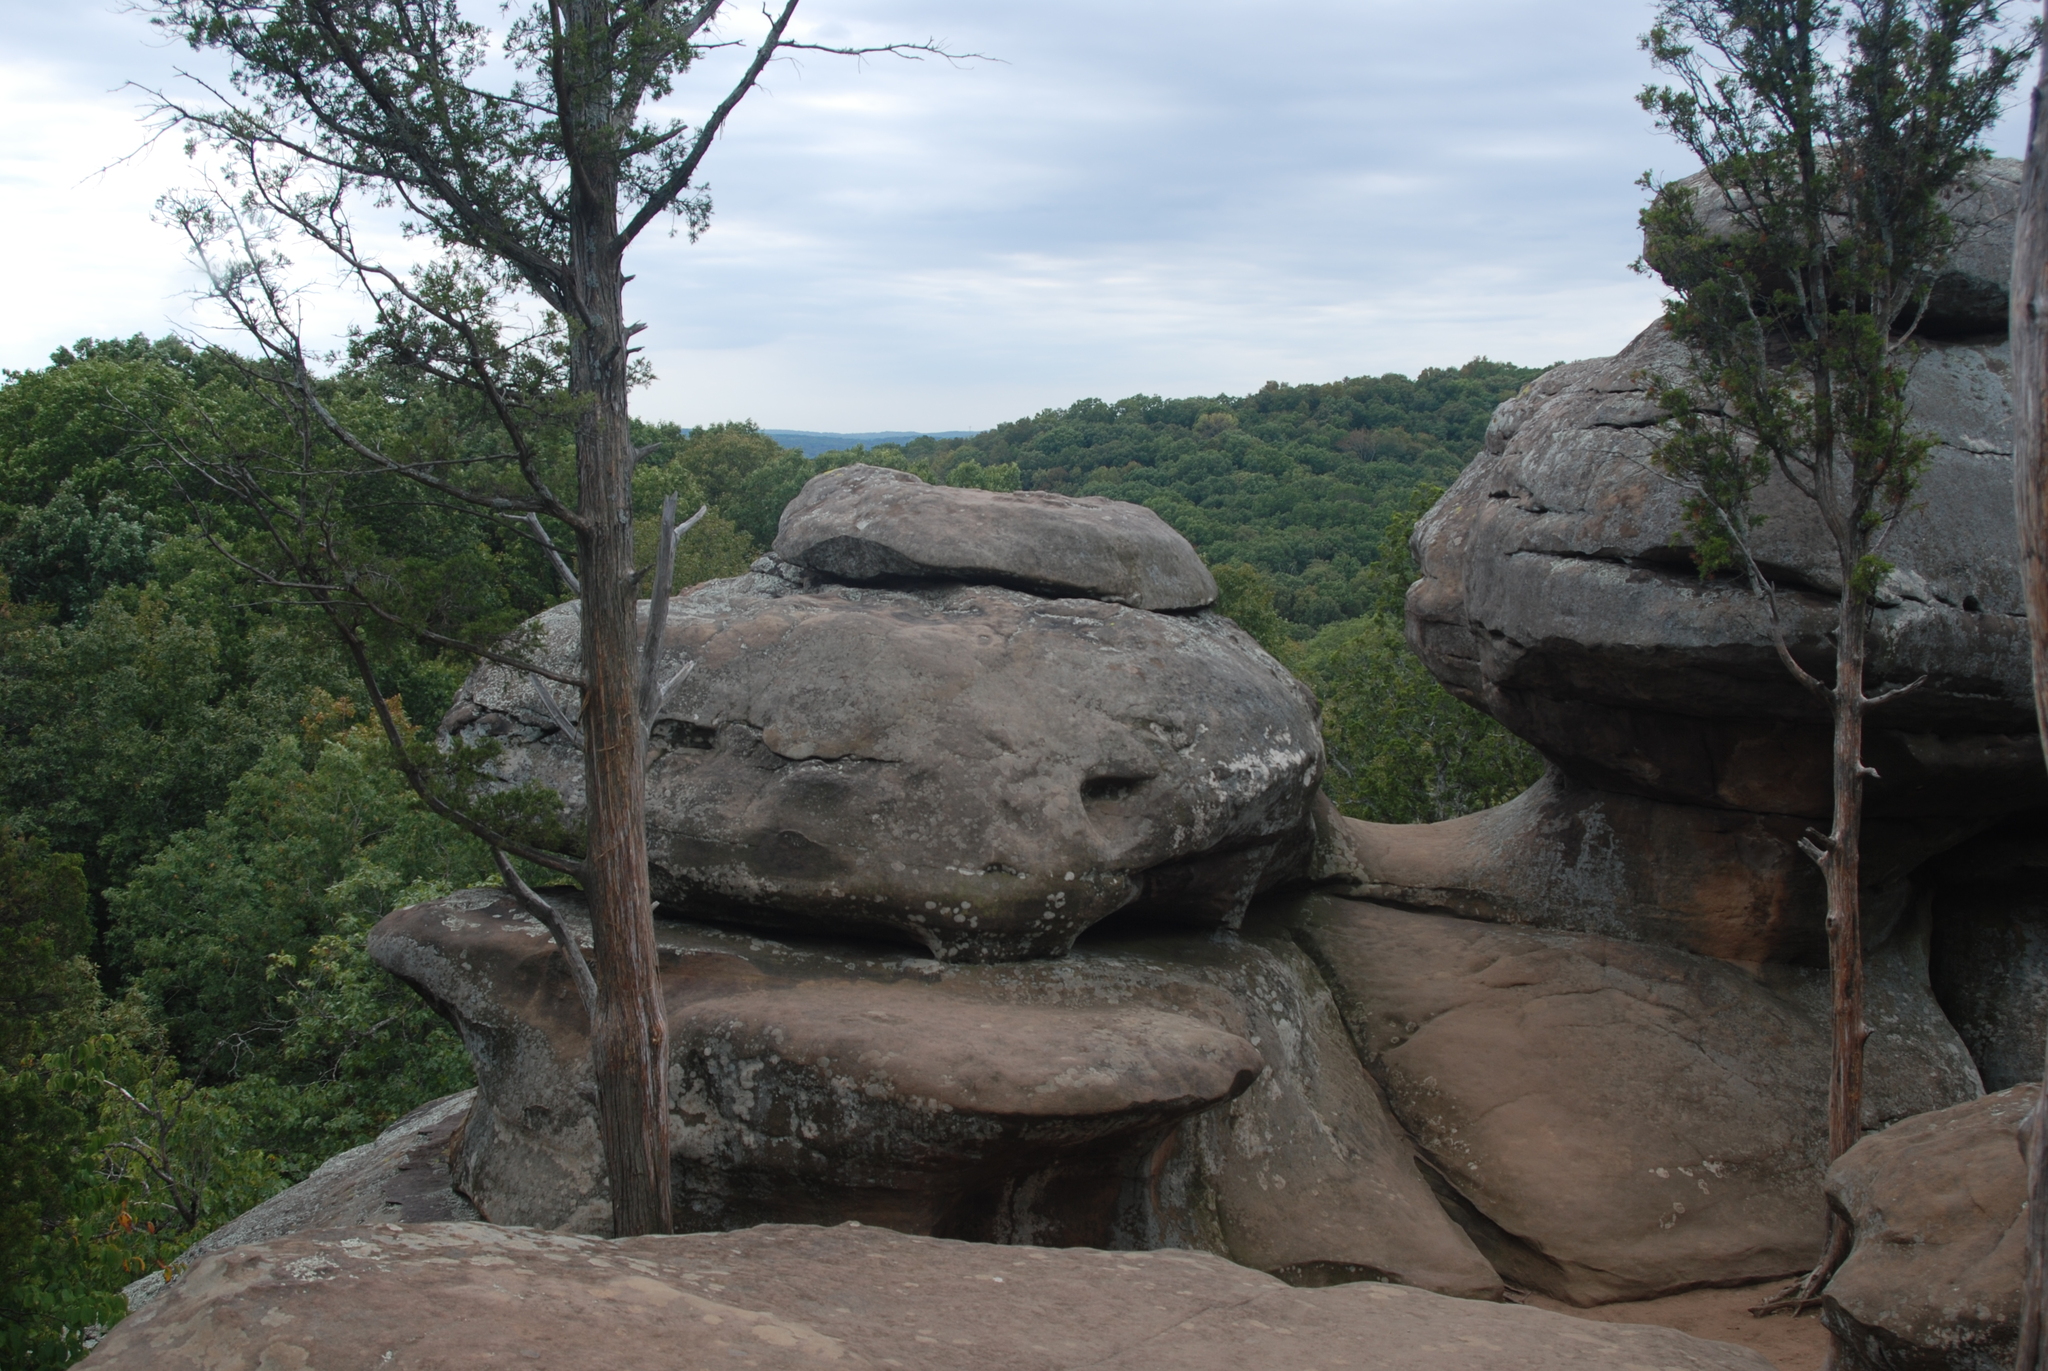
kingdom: Plantae
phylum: Tracheophyta
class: Pinopsida
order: Pinales
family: Cupressaceae
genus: Juniperus
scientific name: Juniperus virginiana
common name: Red juniper
